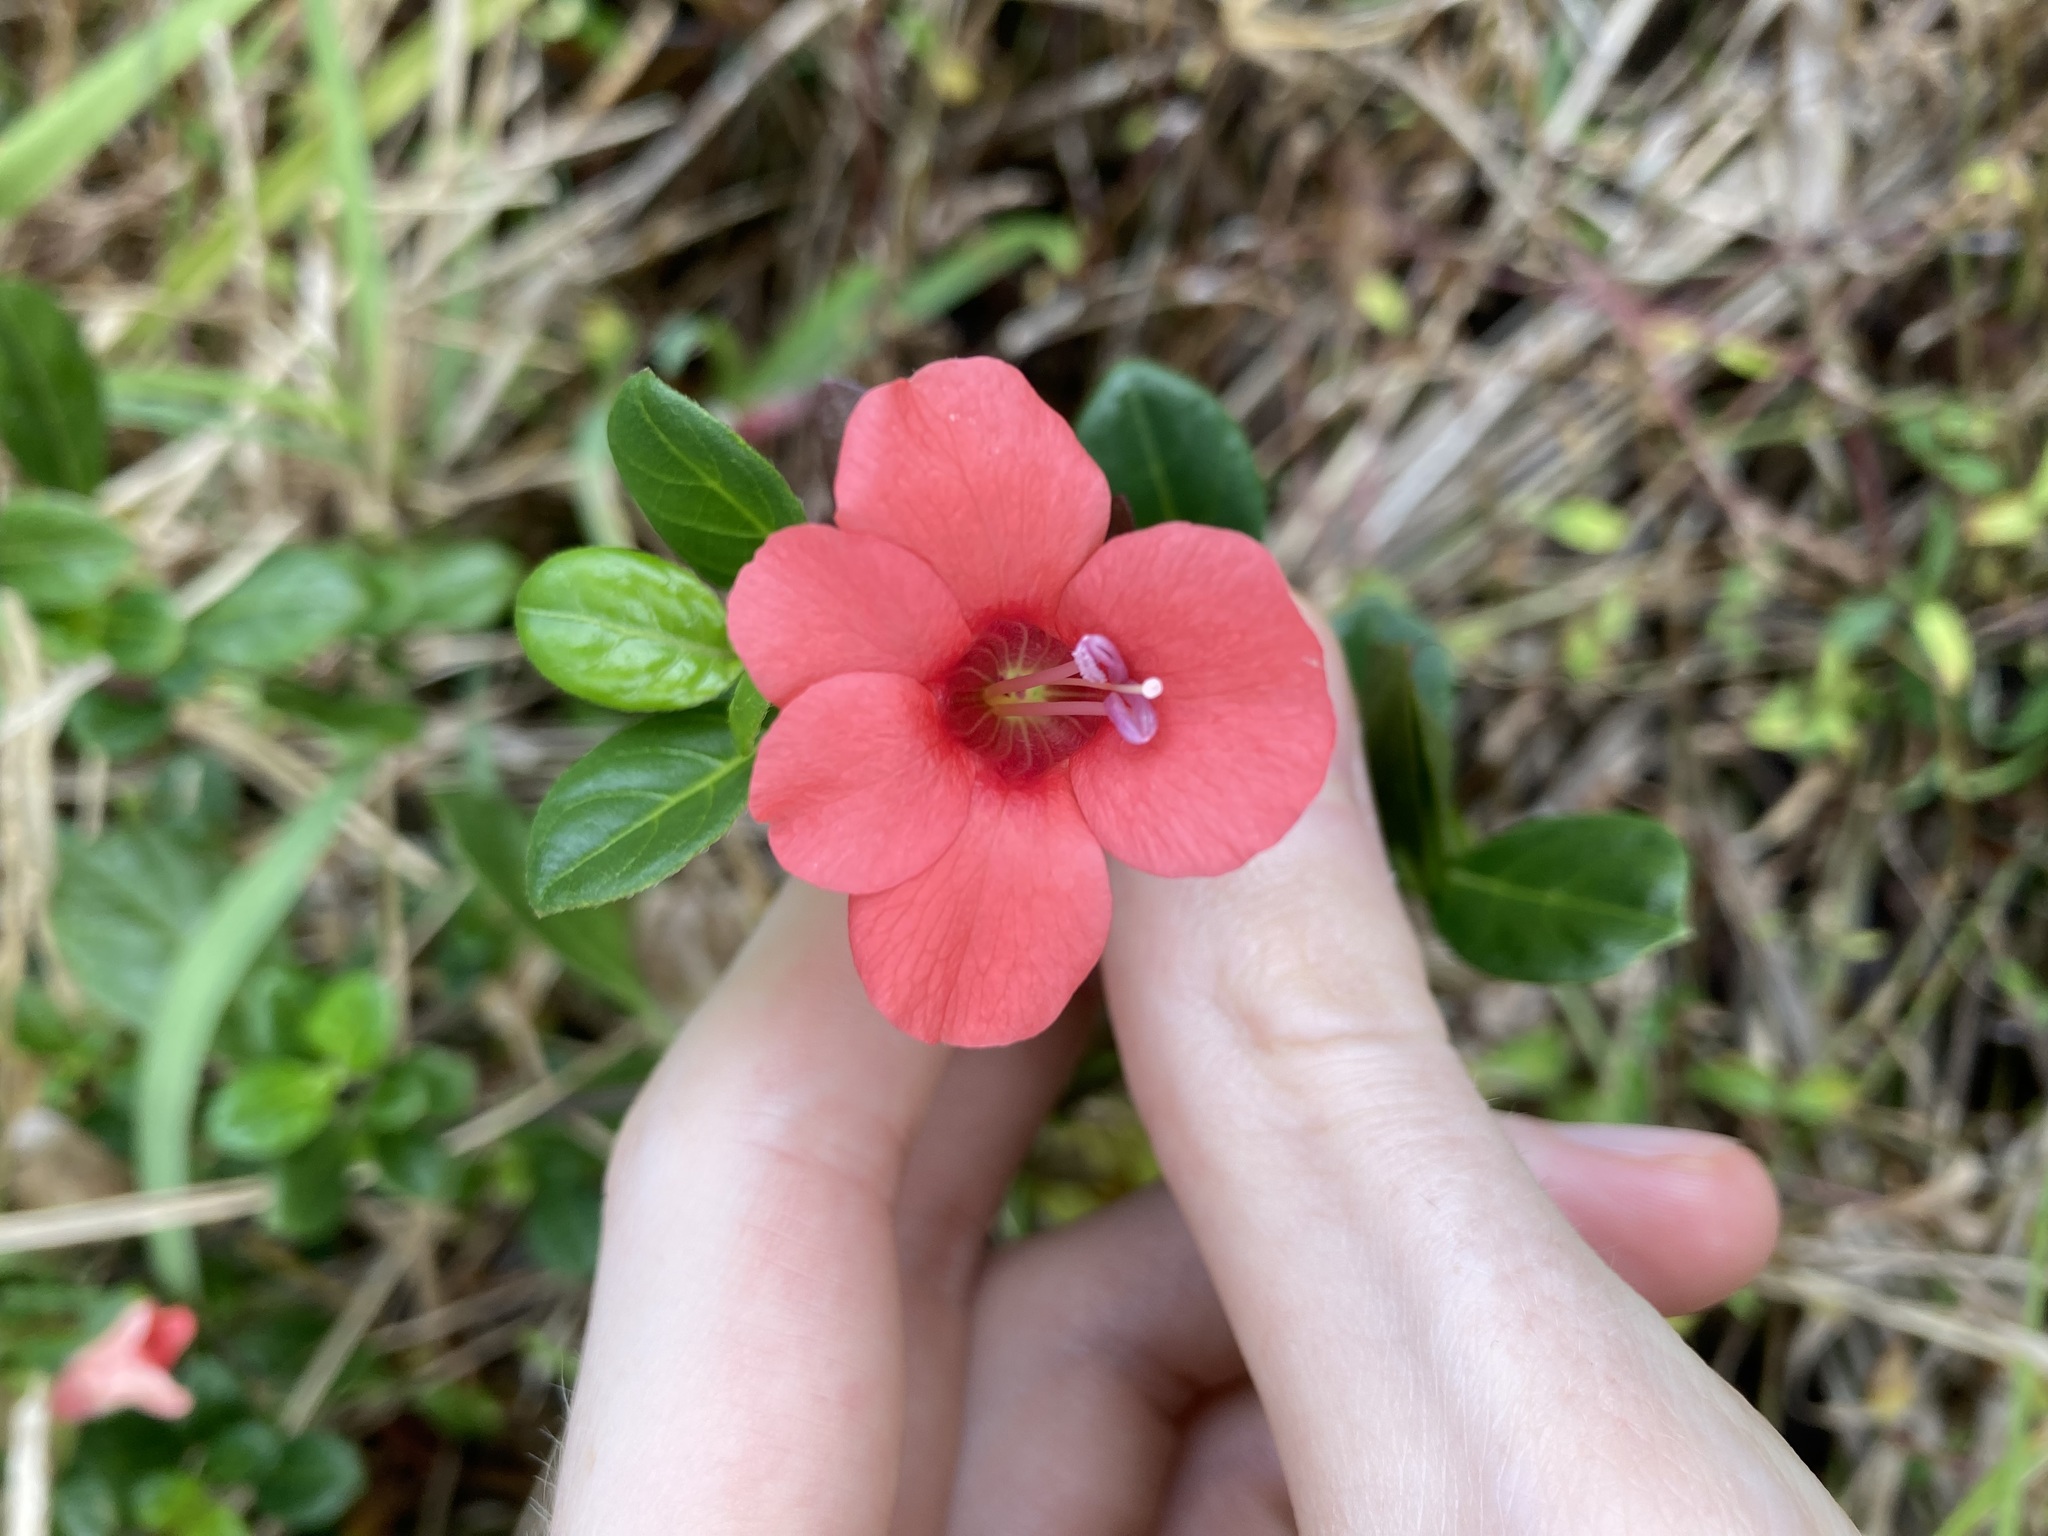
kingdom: Plantae
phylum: Tracheophyta
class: Magnoliopsida
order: Lamiales
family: Acanthaceae
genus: Barleria
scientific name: Barleria repens
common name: Pink-ruellia
